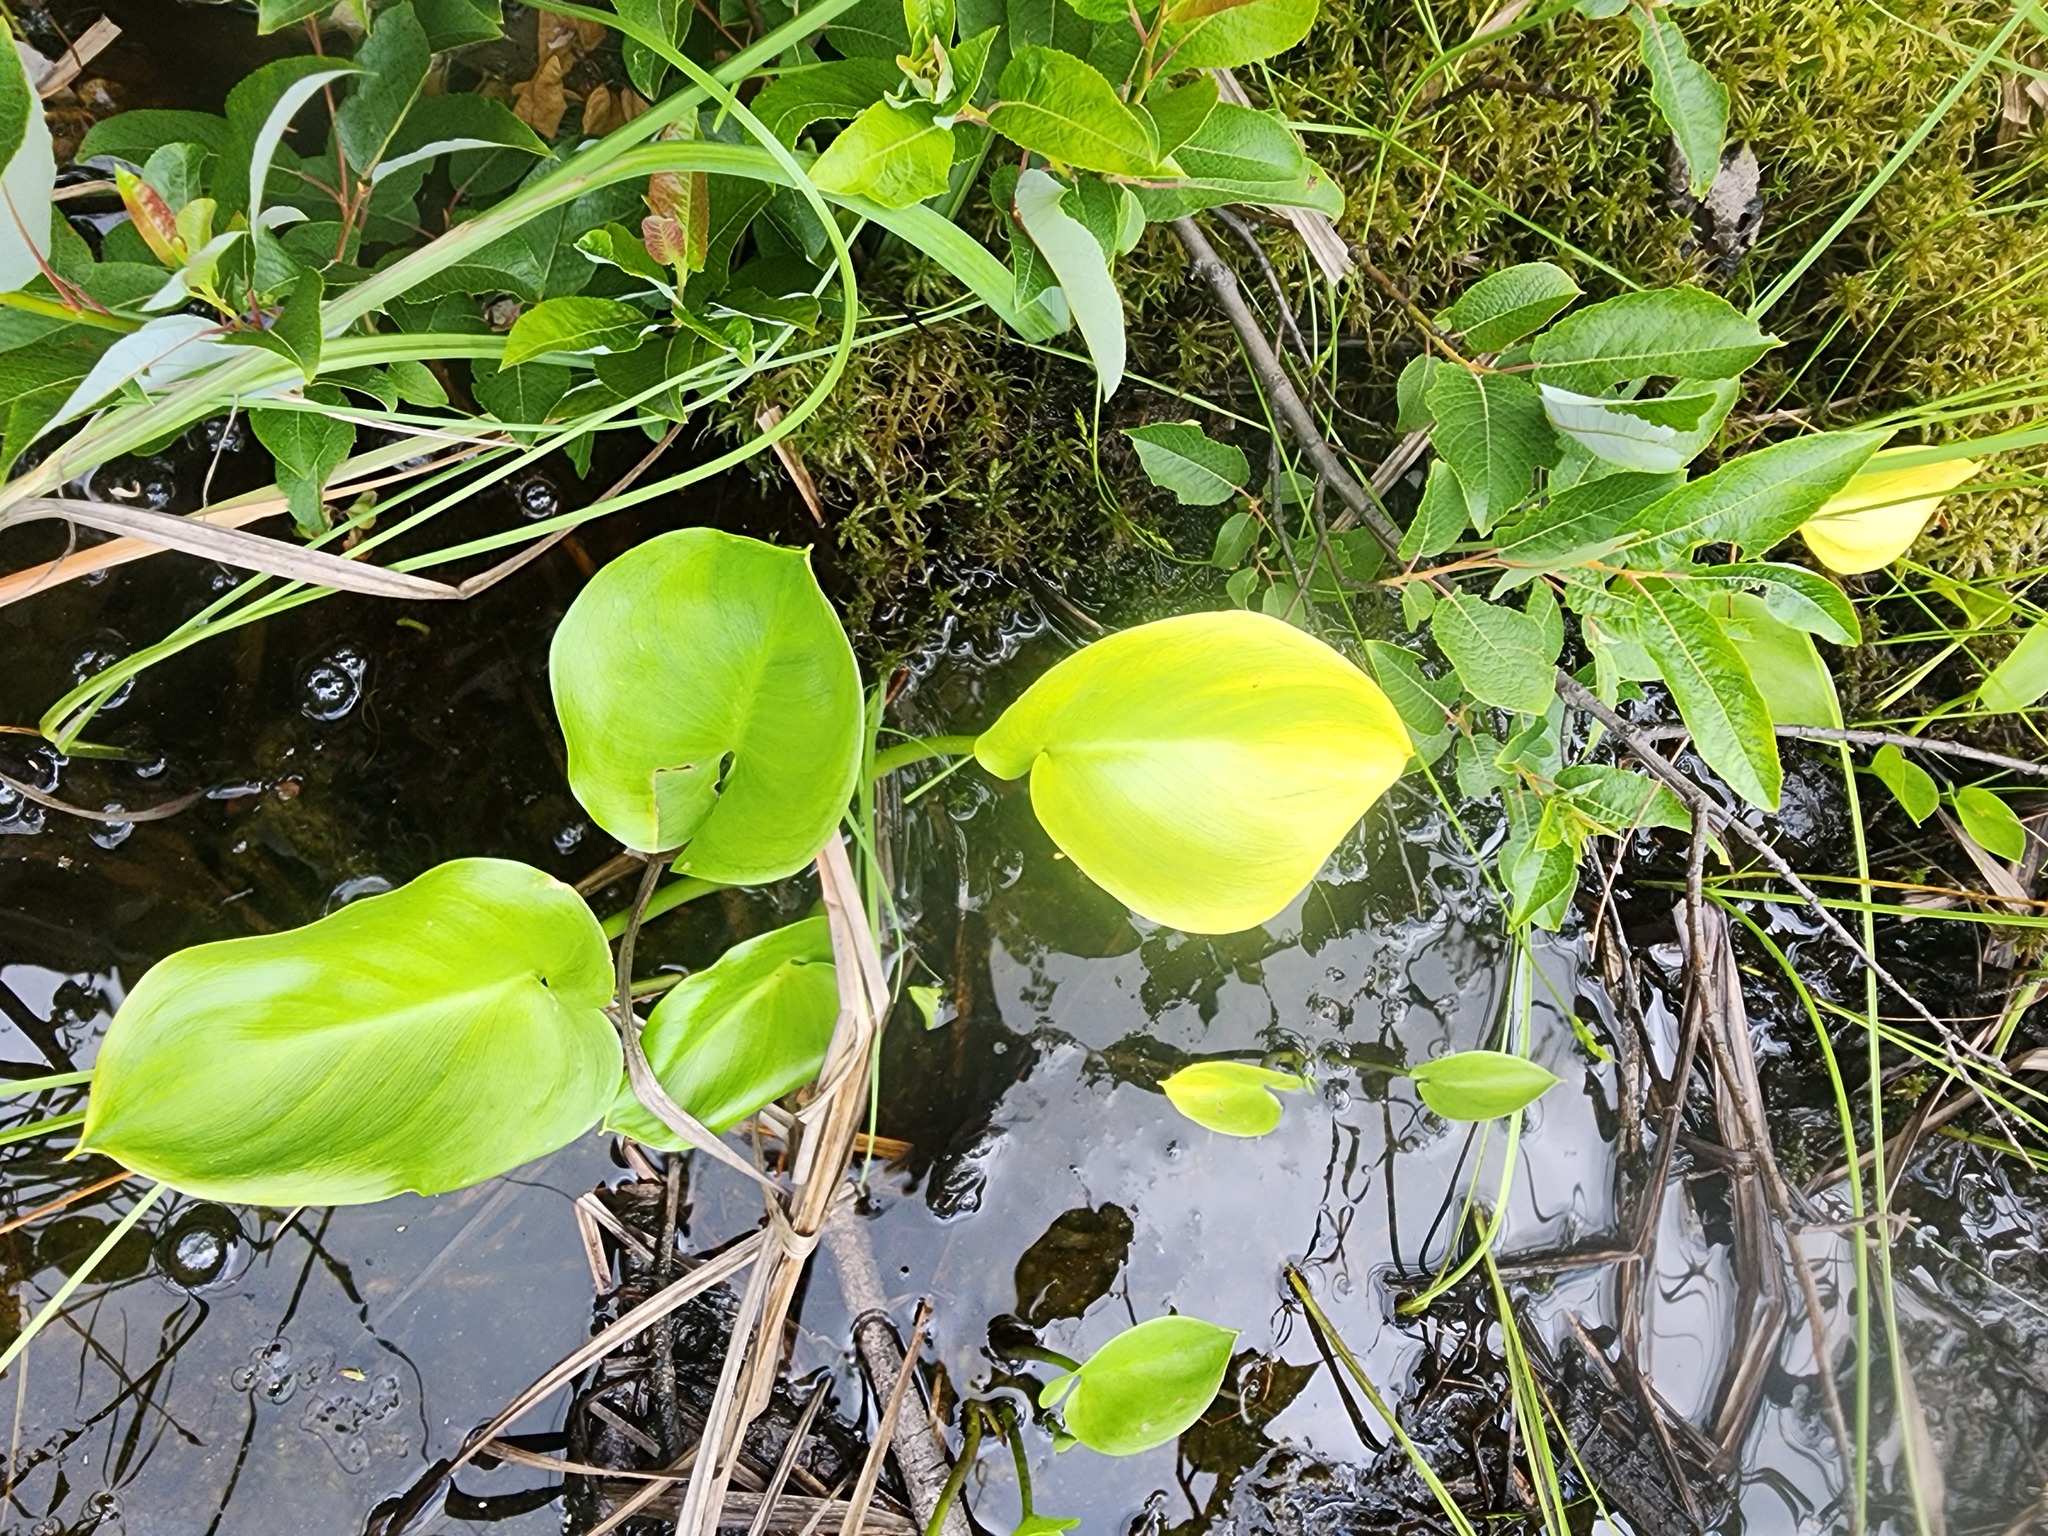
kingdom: Plantae
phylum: Tracheophyta
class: Liliopsida
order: Alismatales
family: Araceae
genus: Calla
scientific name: Calla palustris
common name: Bog arum
